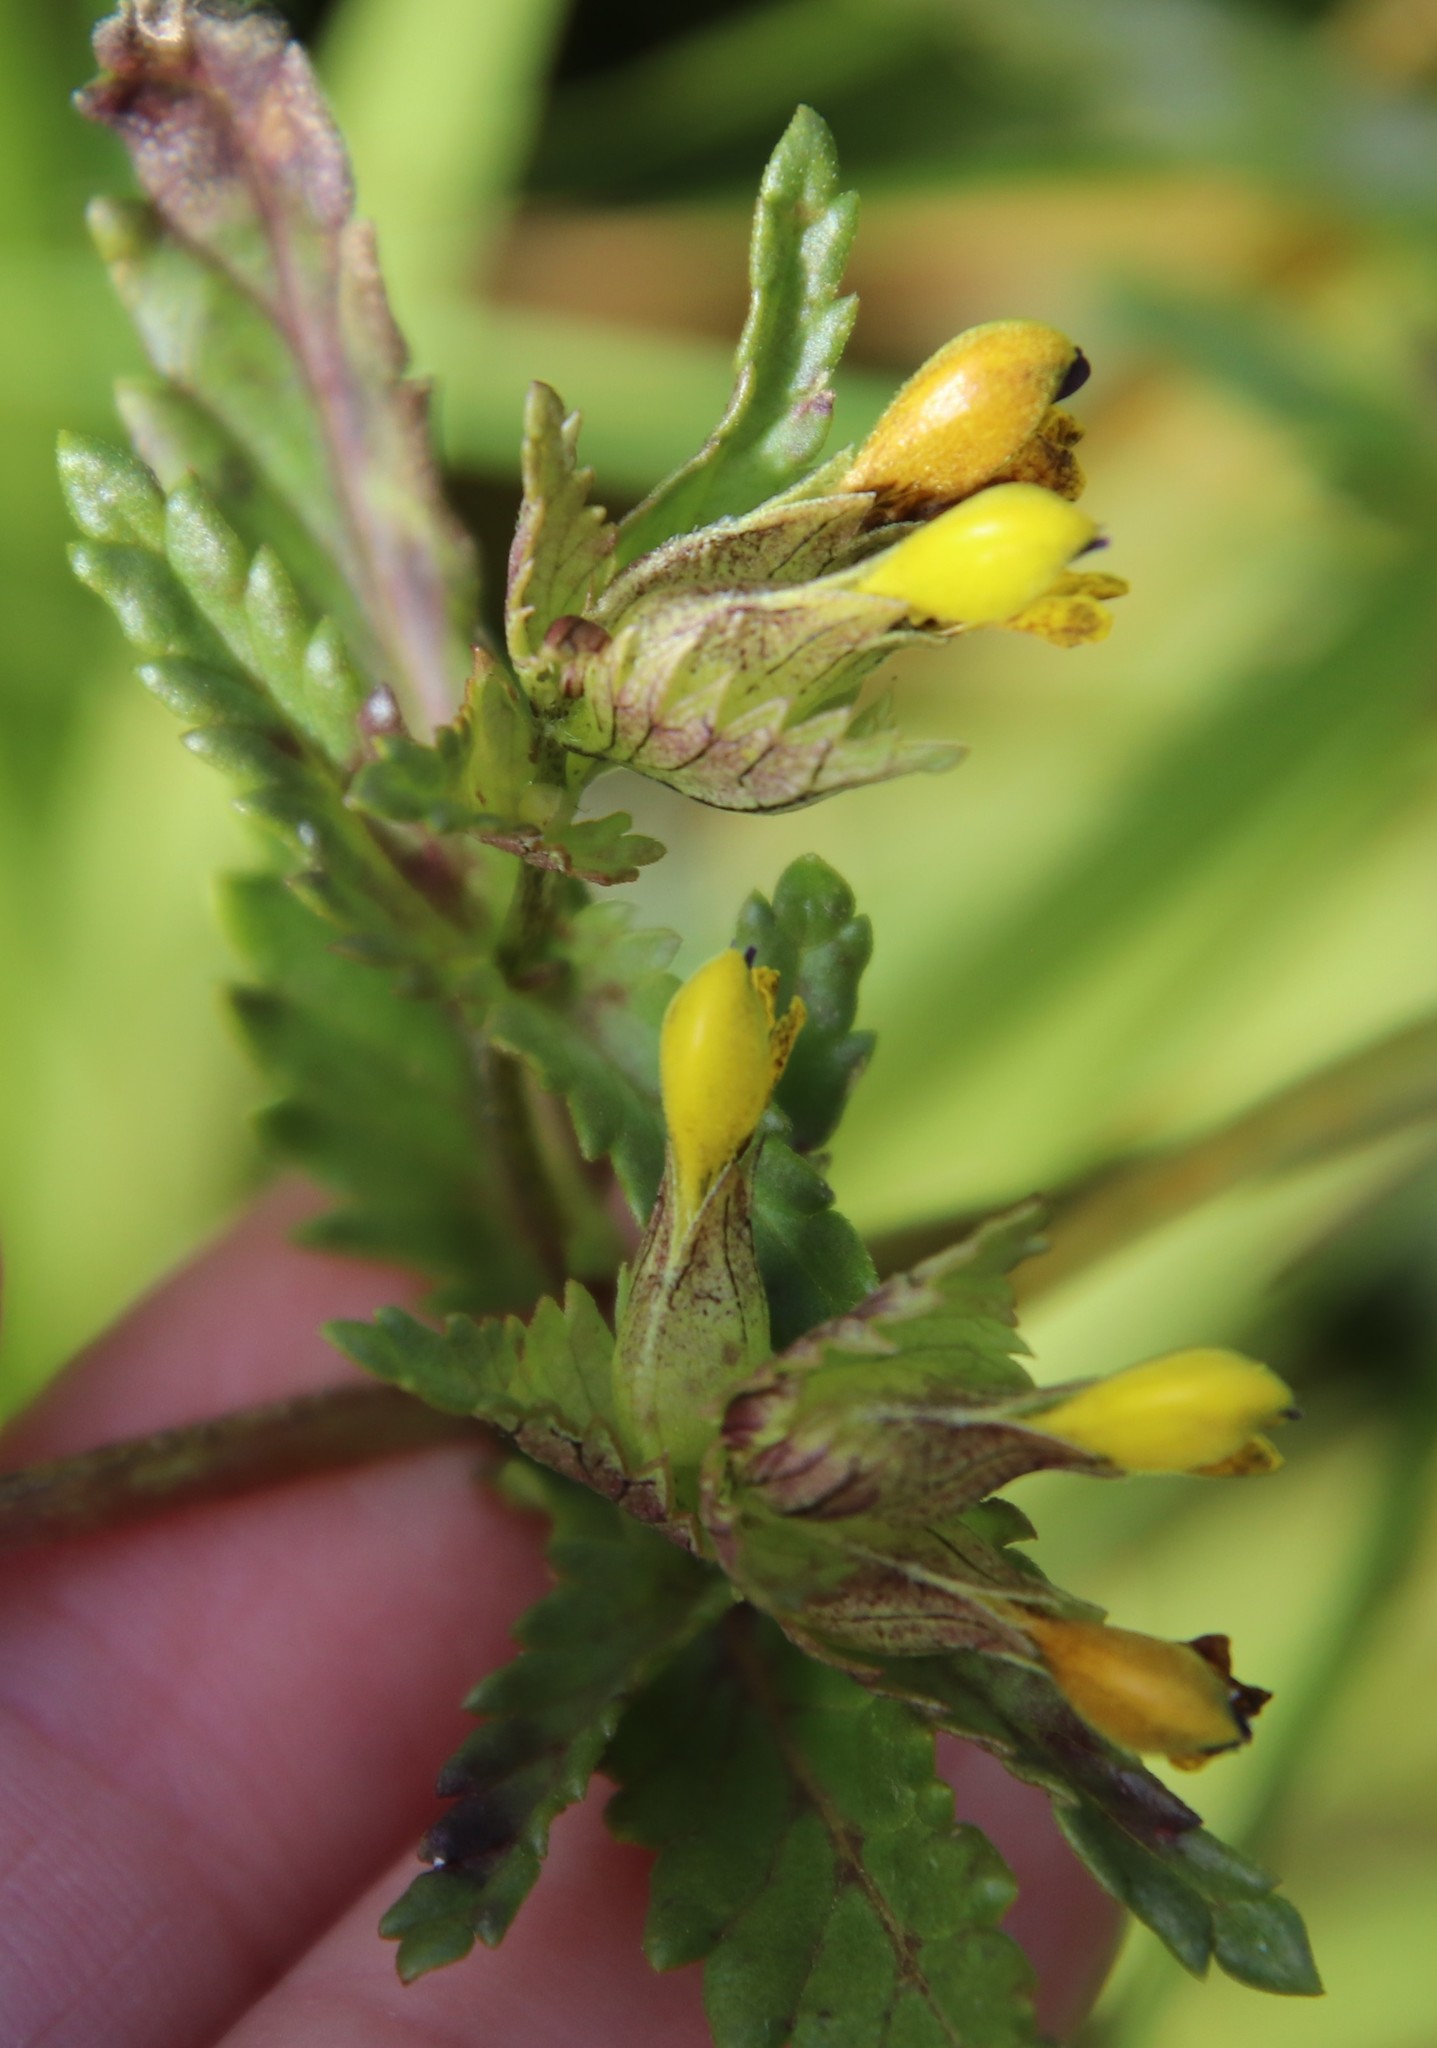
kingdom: Plantae
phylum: Tracheophyta
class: Magnoliopsida
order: Lamiales
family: Orobanchaceae
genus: Rhinanthus
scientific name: Rhinanthus minor
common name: Yellow-rattle
